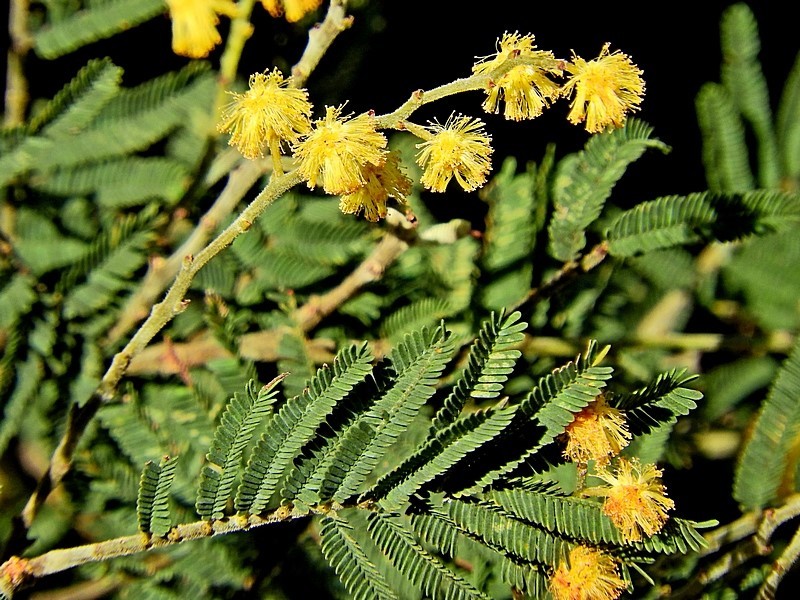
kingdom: Plantae
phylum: Tracheophyta
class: Magnoliopsida
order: Fabales
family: Fabaceae
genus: Acacia
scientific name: Acacia dealbata
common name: Silver wattle
